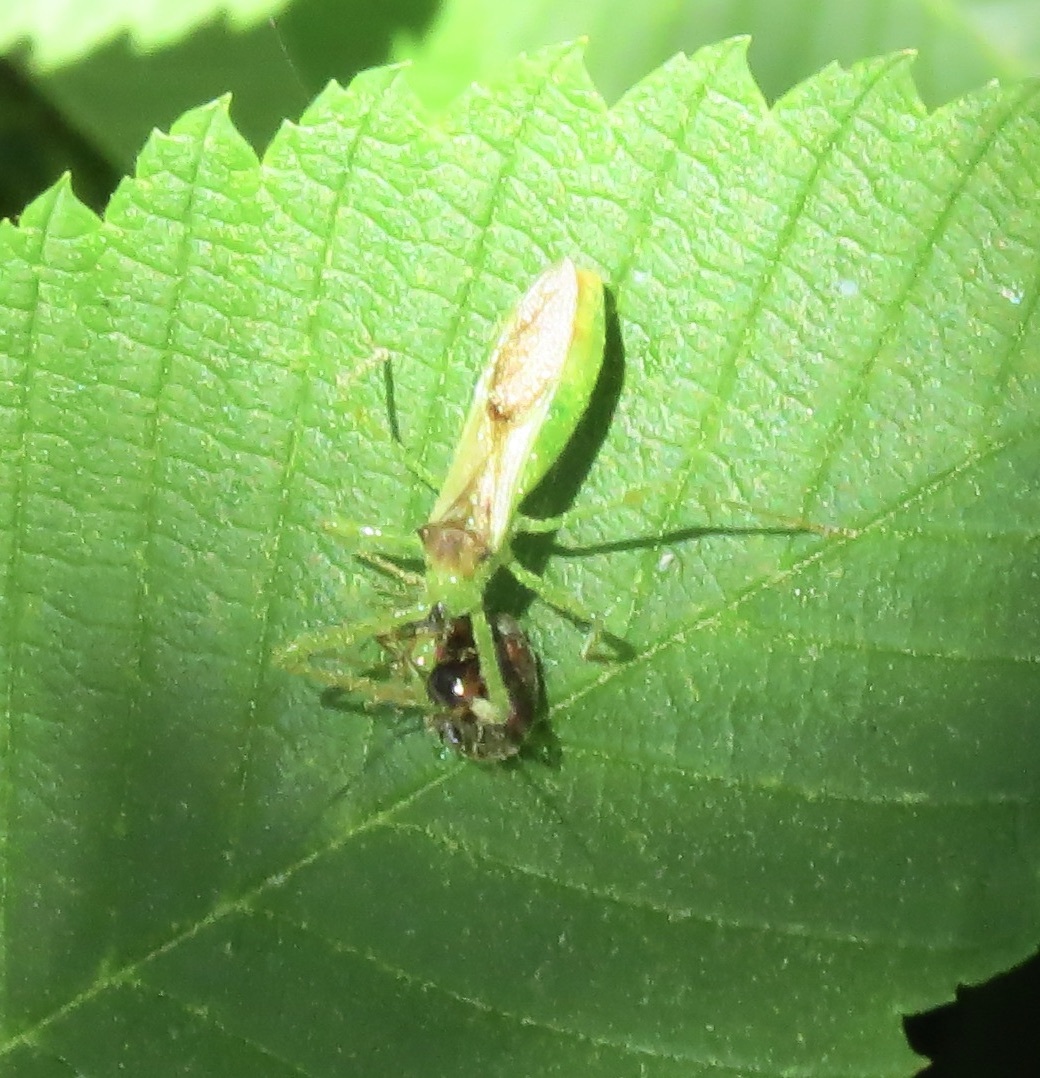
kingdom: Animalia
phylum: Arthropoda
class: Insecta
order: Hemiptera
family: Reduviidae
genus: Zelus
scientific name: Zelus luridus
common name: Pale green assassin bug
